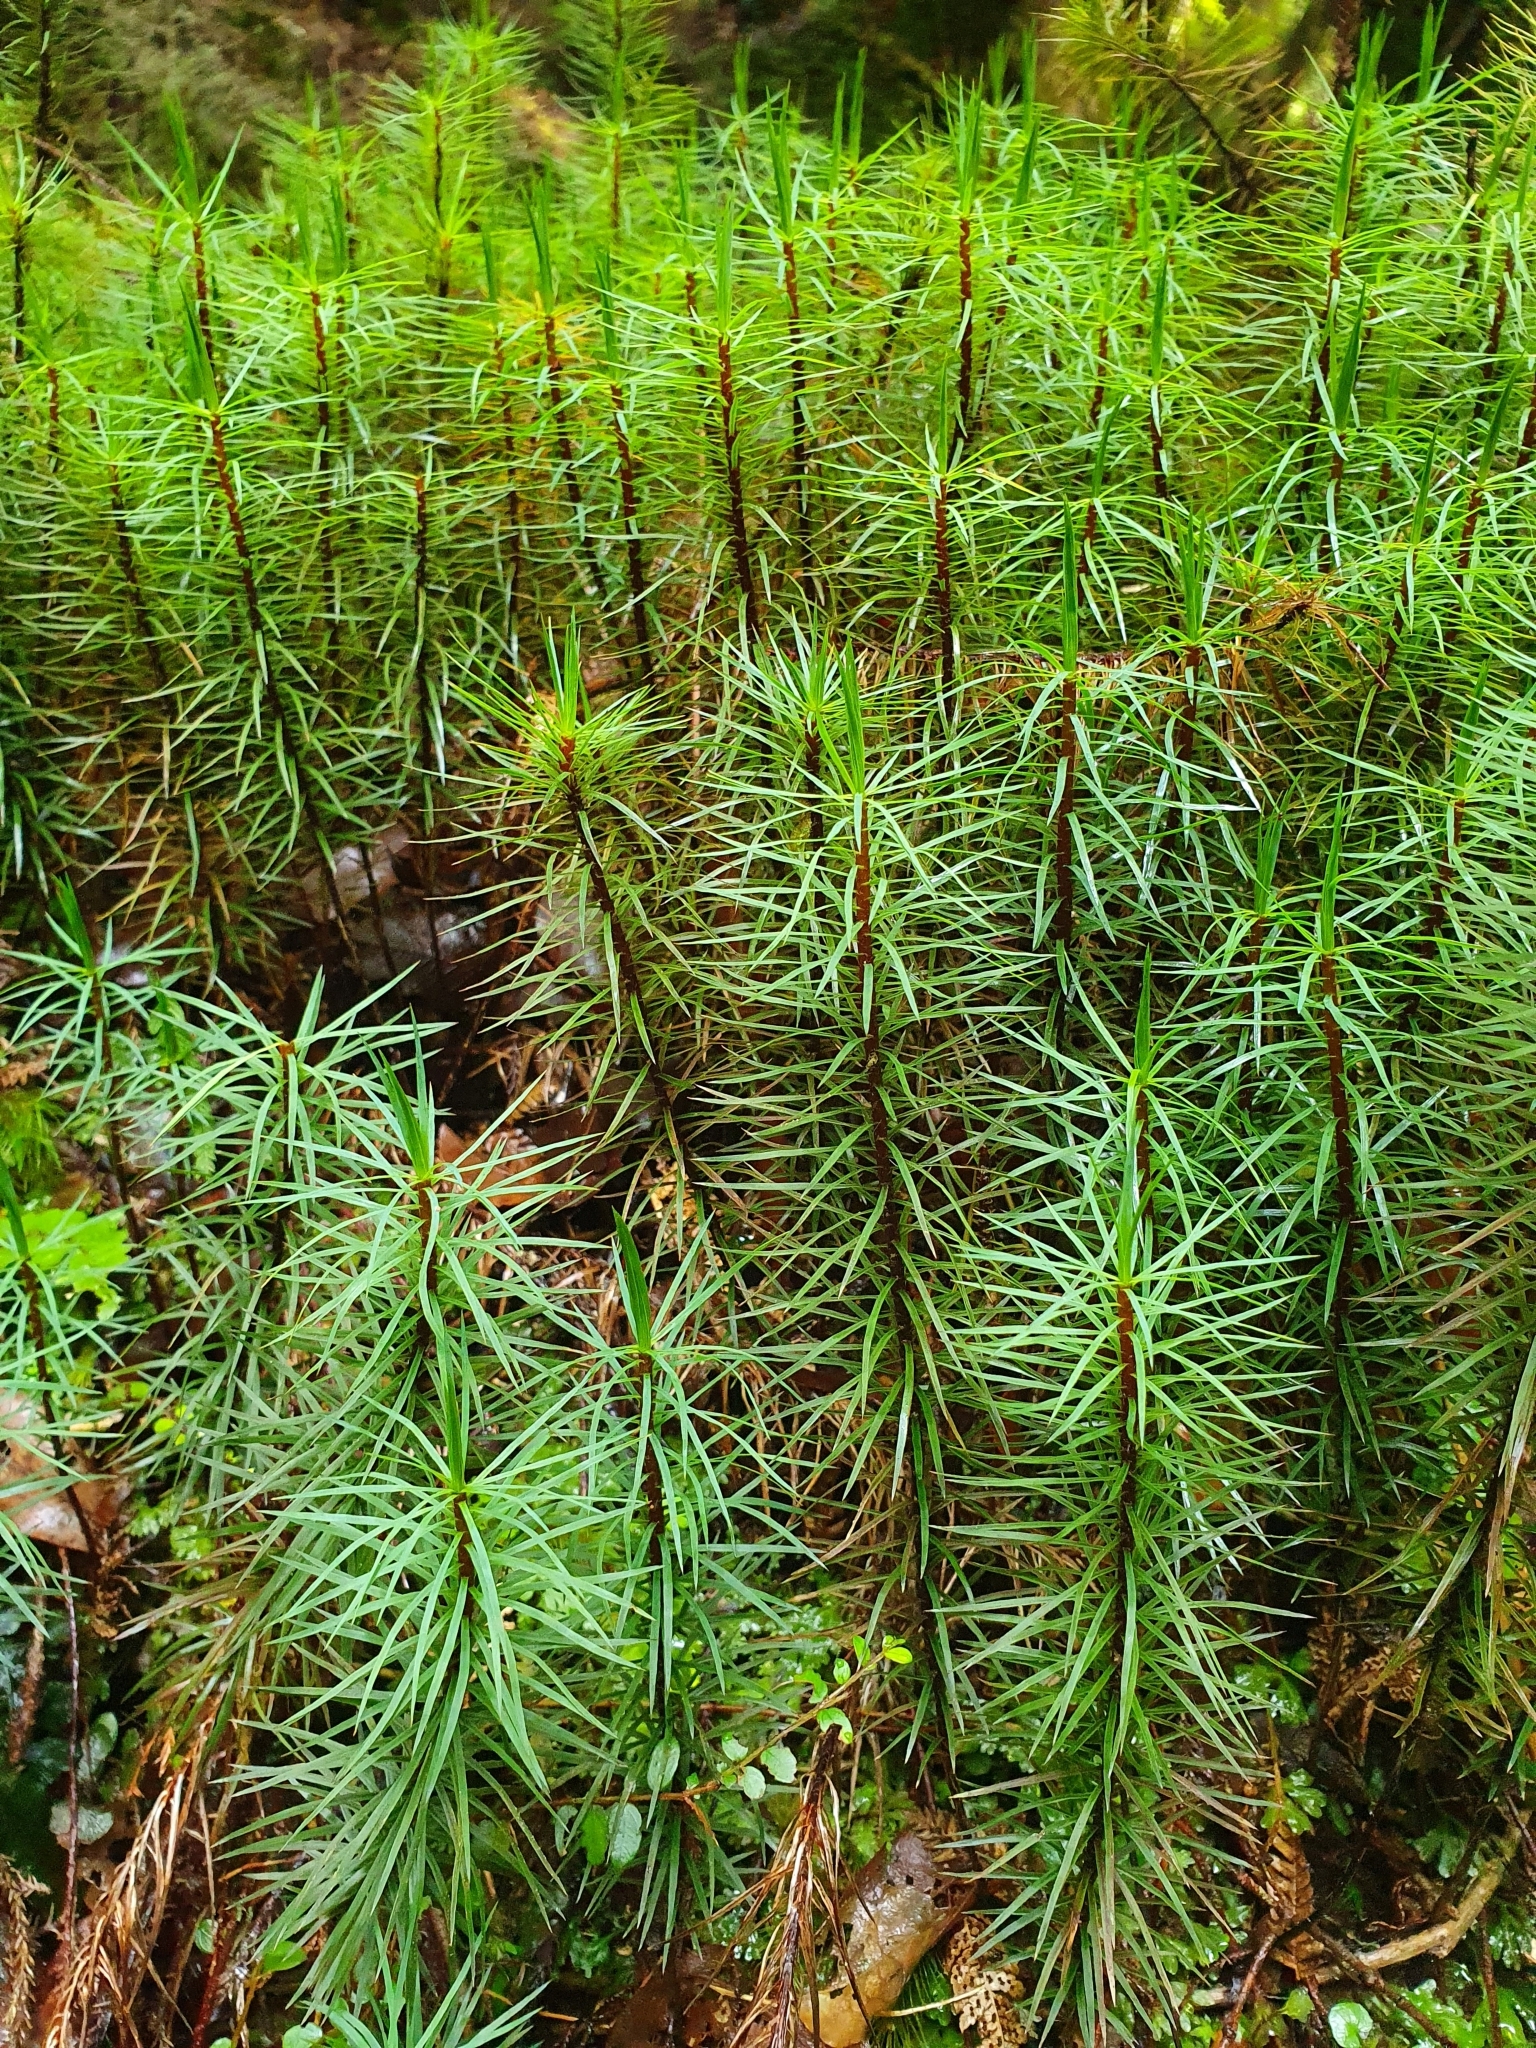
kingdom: Plantae
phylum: Bryophyta
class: Polytrichopsida
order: Polytrichales
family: Polytrichaceae
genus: Dawsonia
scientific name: Dawsonia superba
